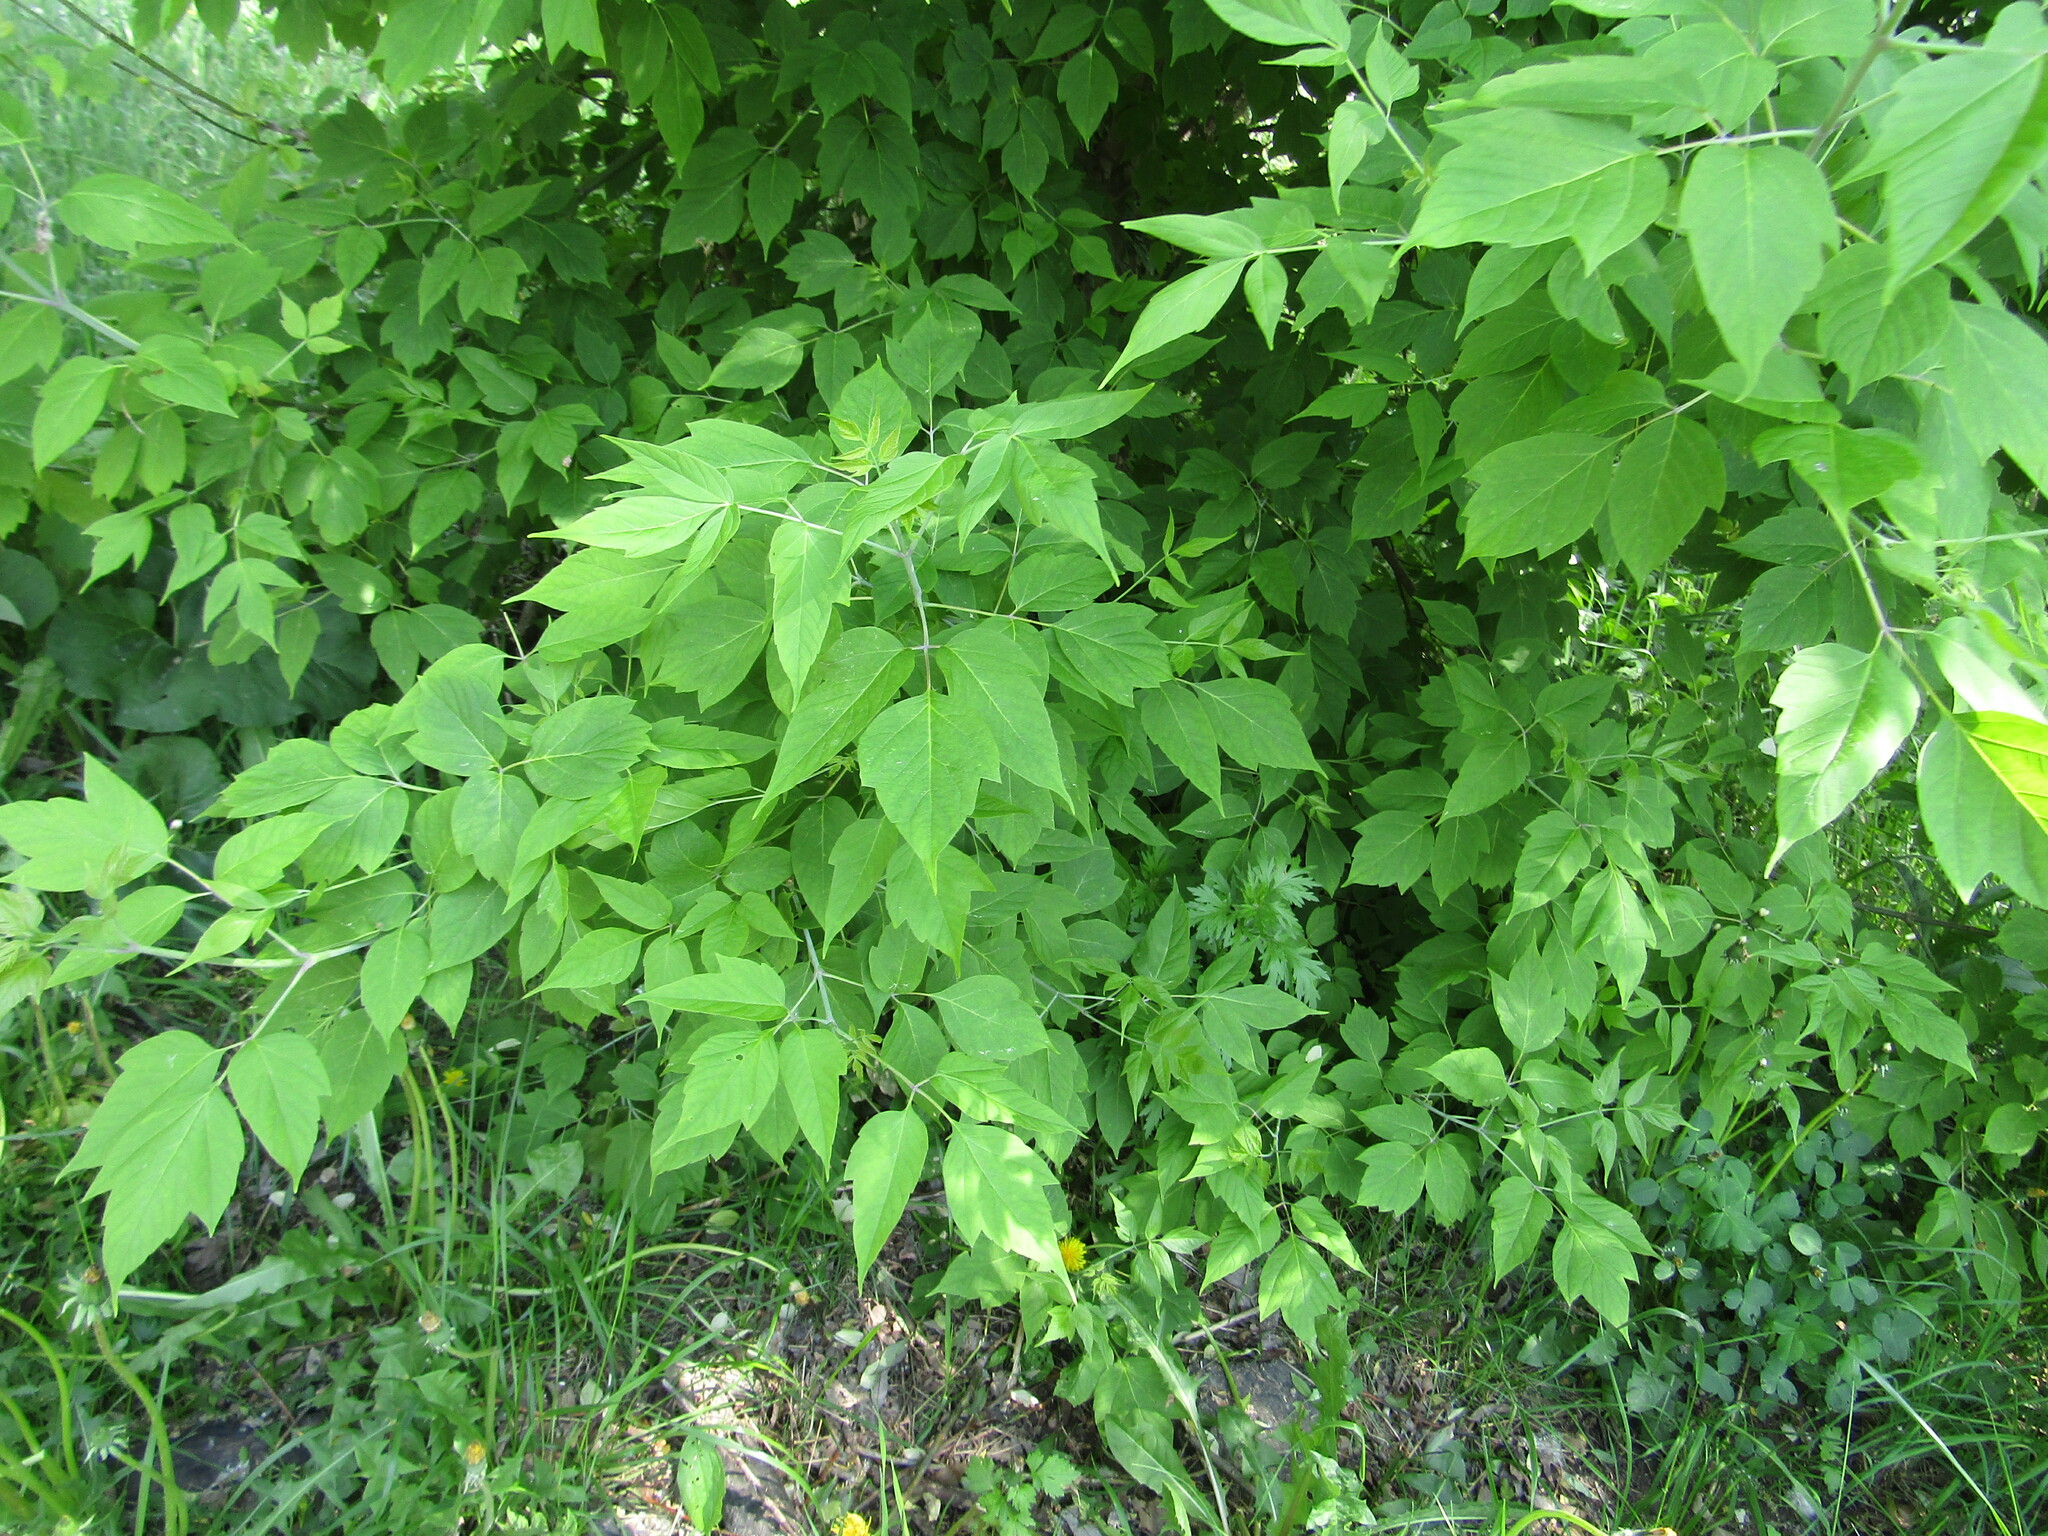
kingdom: Plantae
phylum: Tracheophyta
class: Magnoliopsida
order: Sapindales
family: Sapindaceae
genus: Acer
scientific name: Acer negundo
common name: Ashleaf maple
